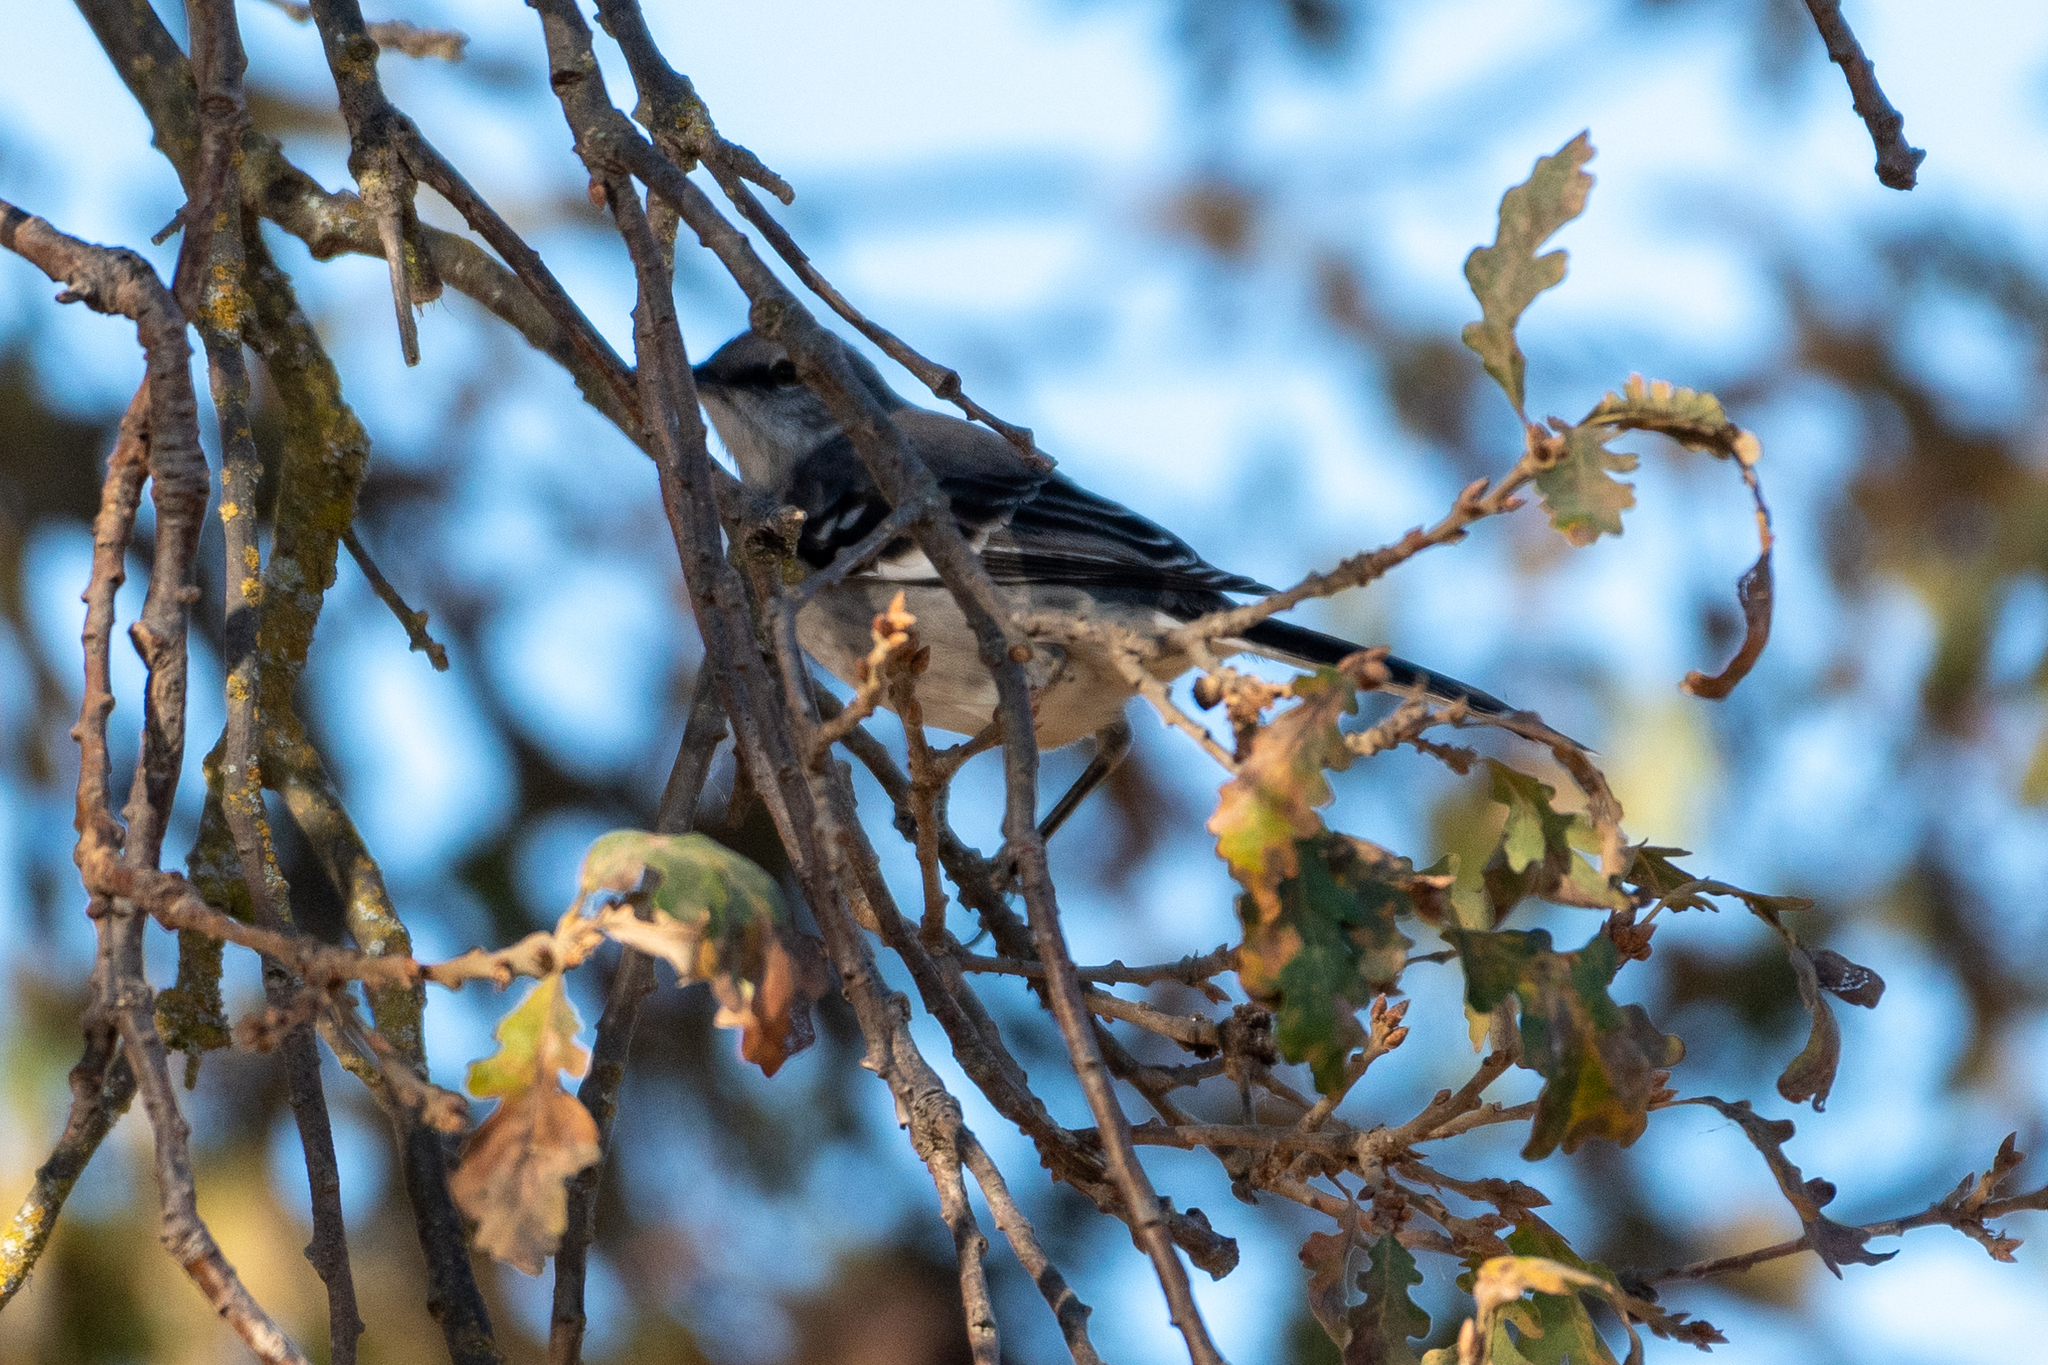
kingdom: Animalia
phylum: Chordata
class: Aves
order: Passeriformes
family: Mimidae
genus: Mimus
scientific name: Mimus polyglottos
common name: Northern mockingbird
